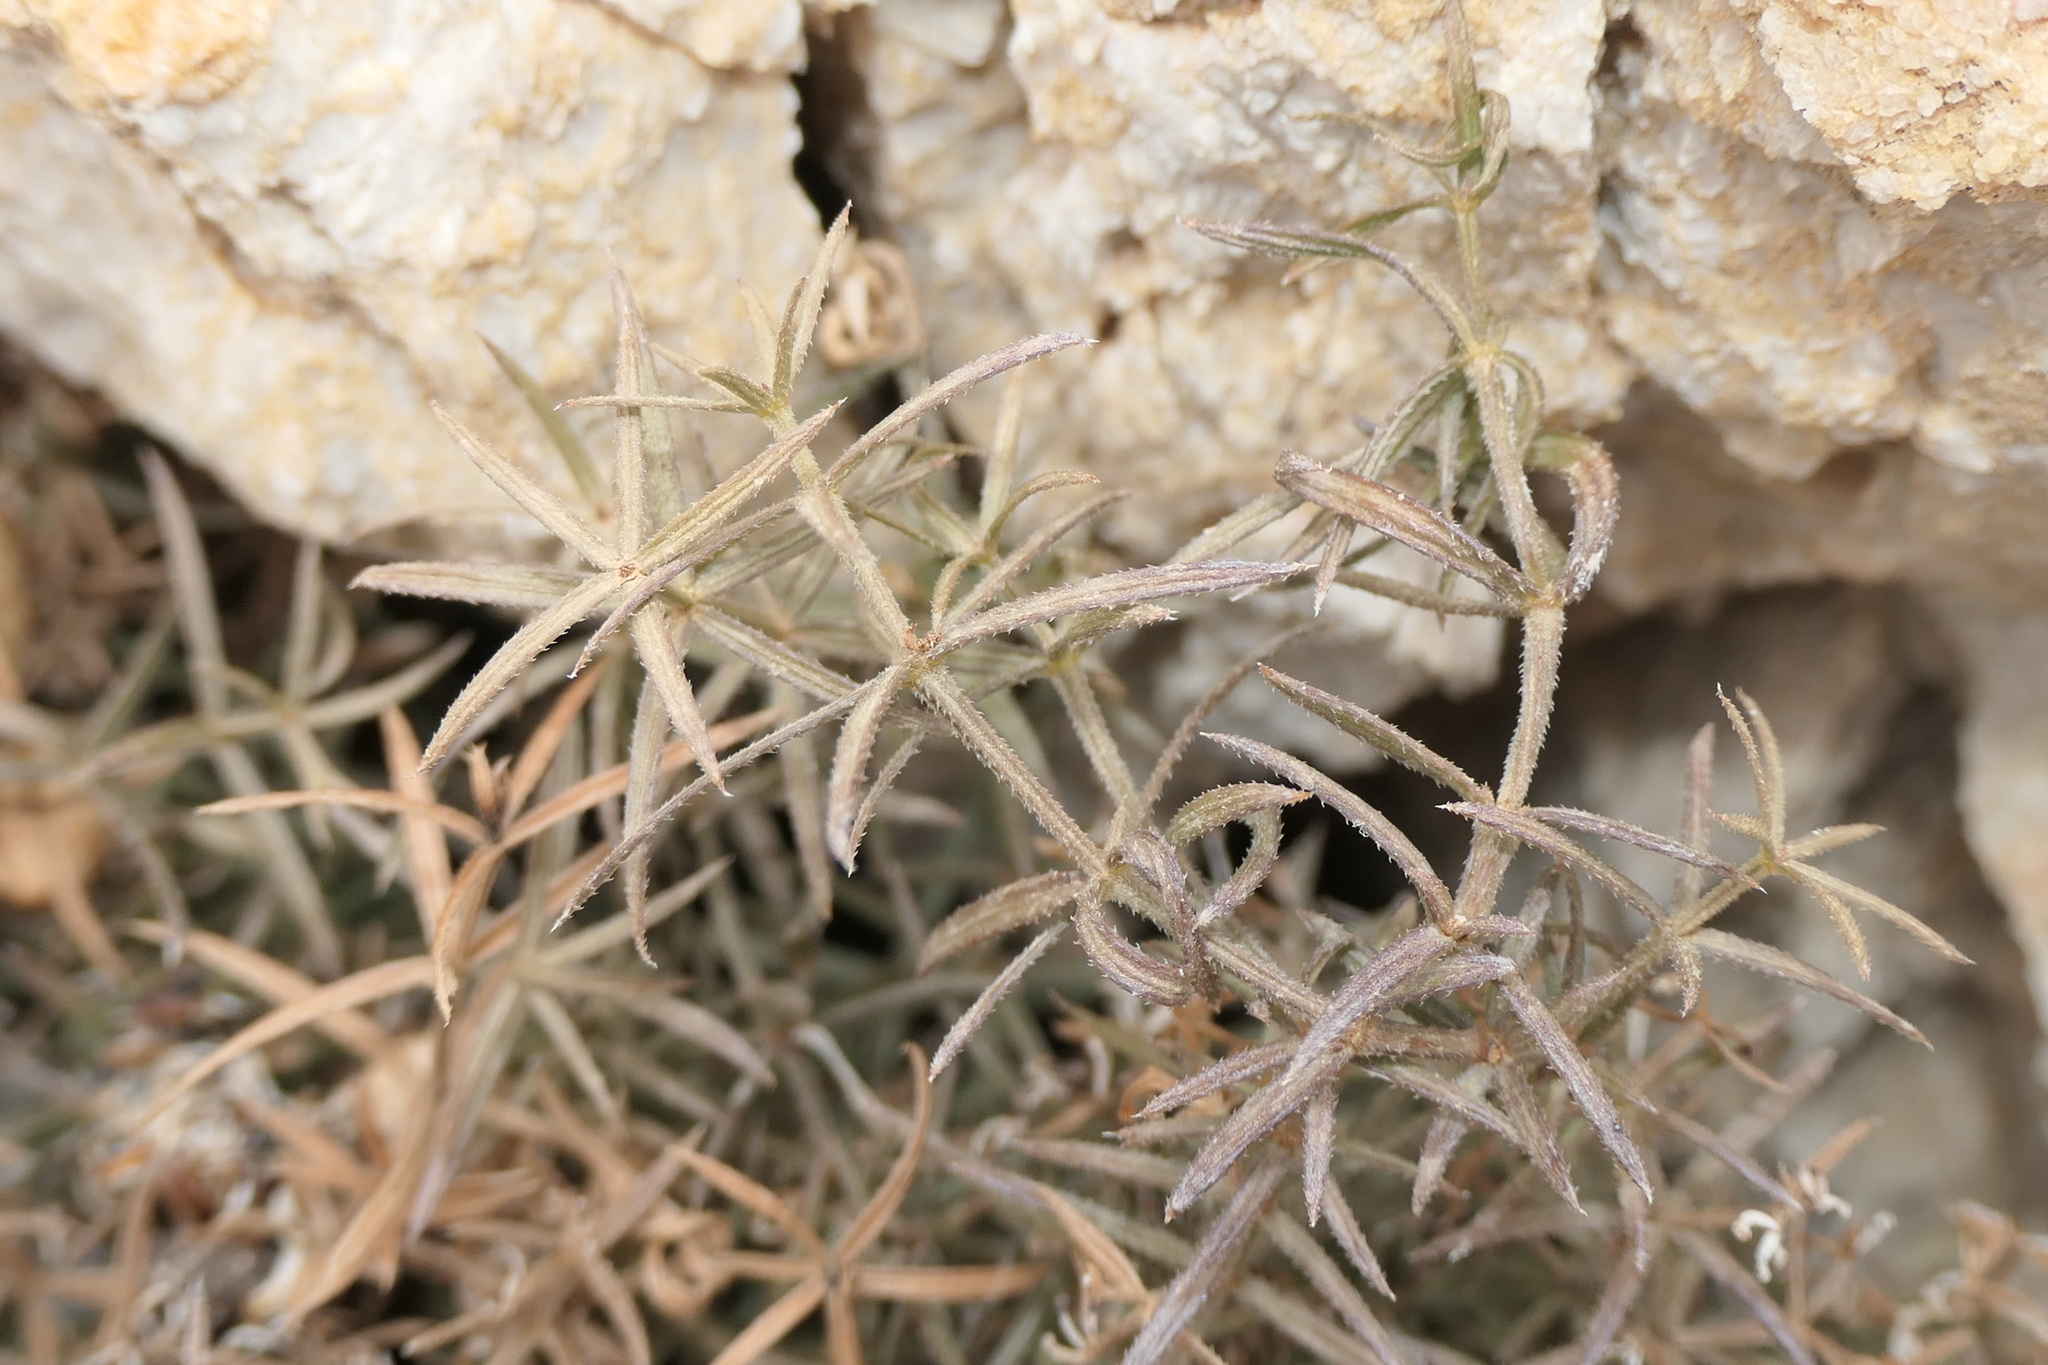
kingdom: Plantae
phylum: Tracheophyta
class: Magnoliopsida
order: Gentianales
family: Rubiaceae
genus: Rubia
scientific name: Rubia balearica
